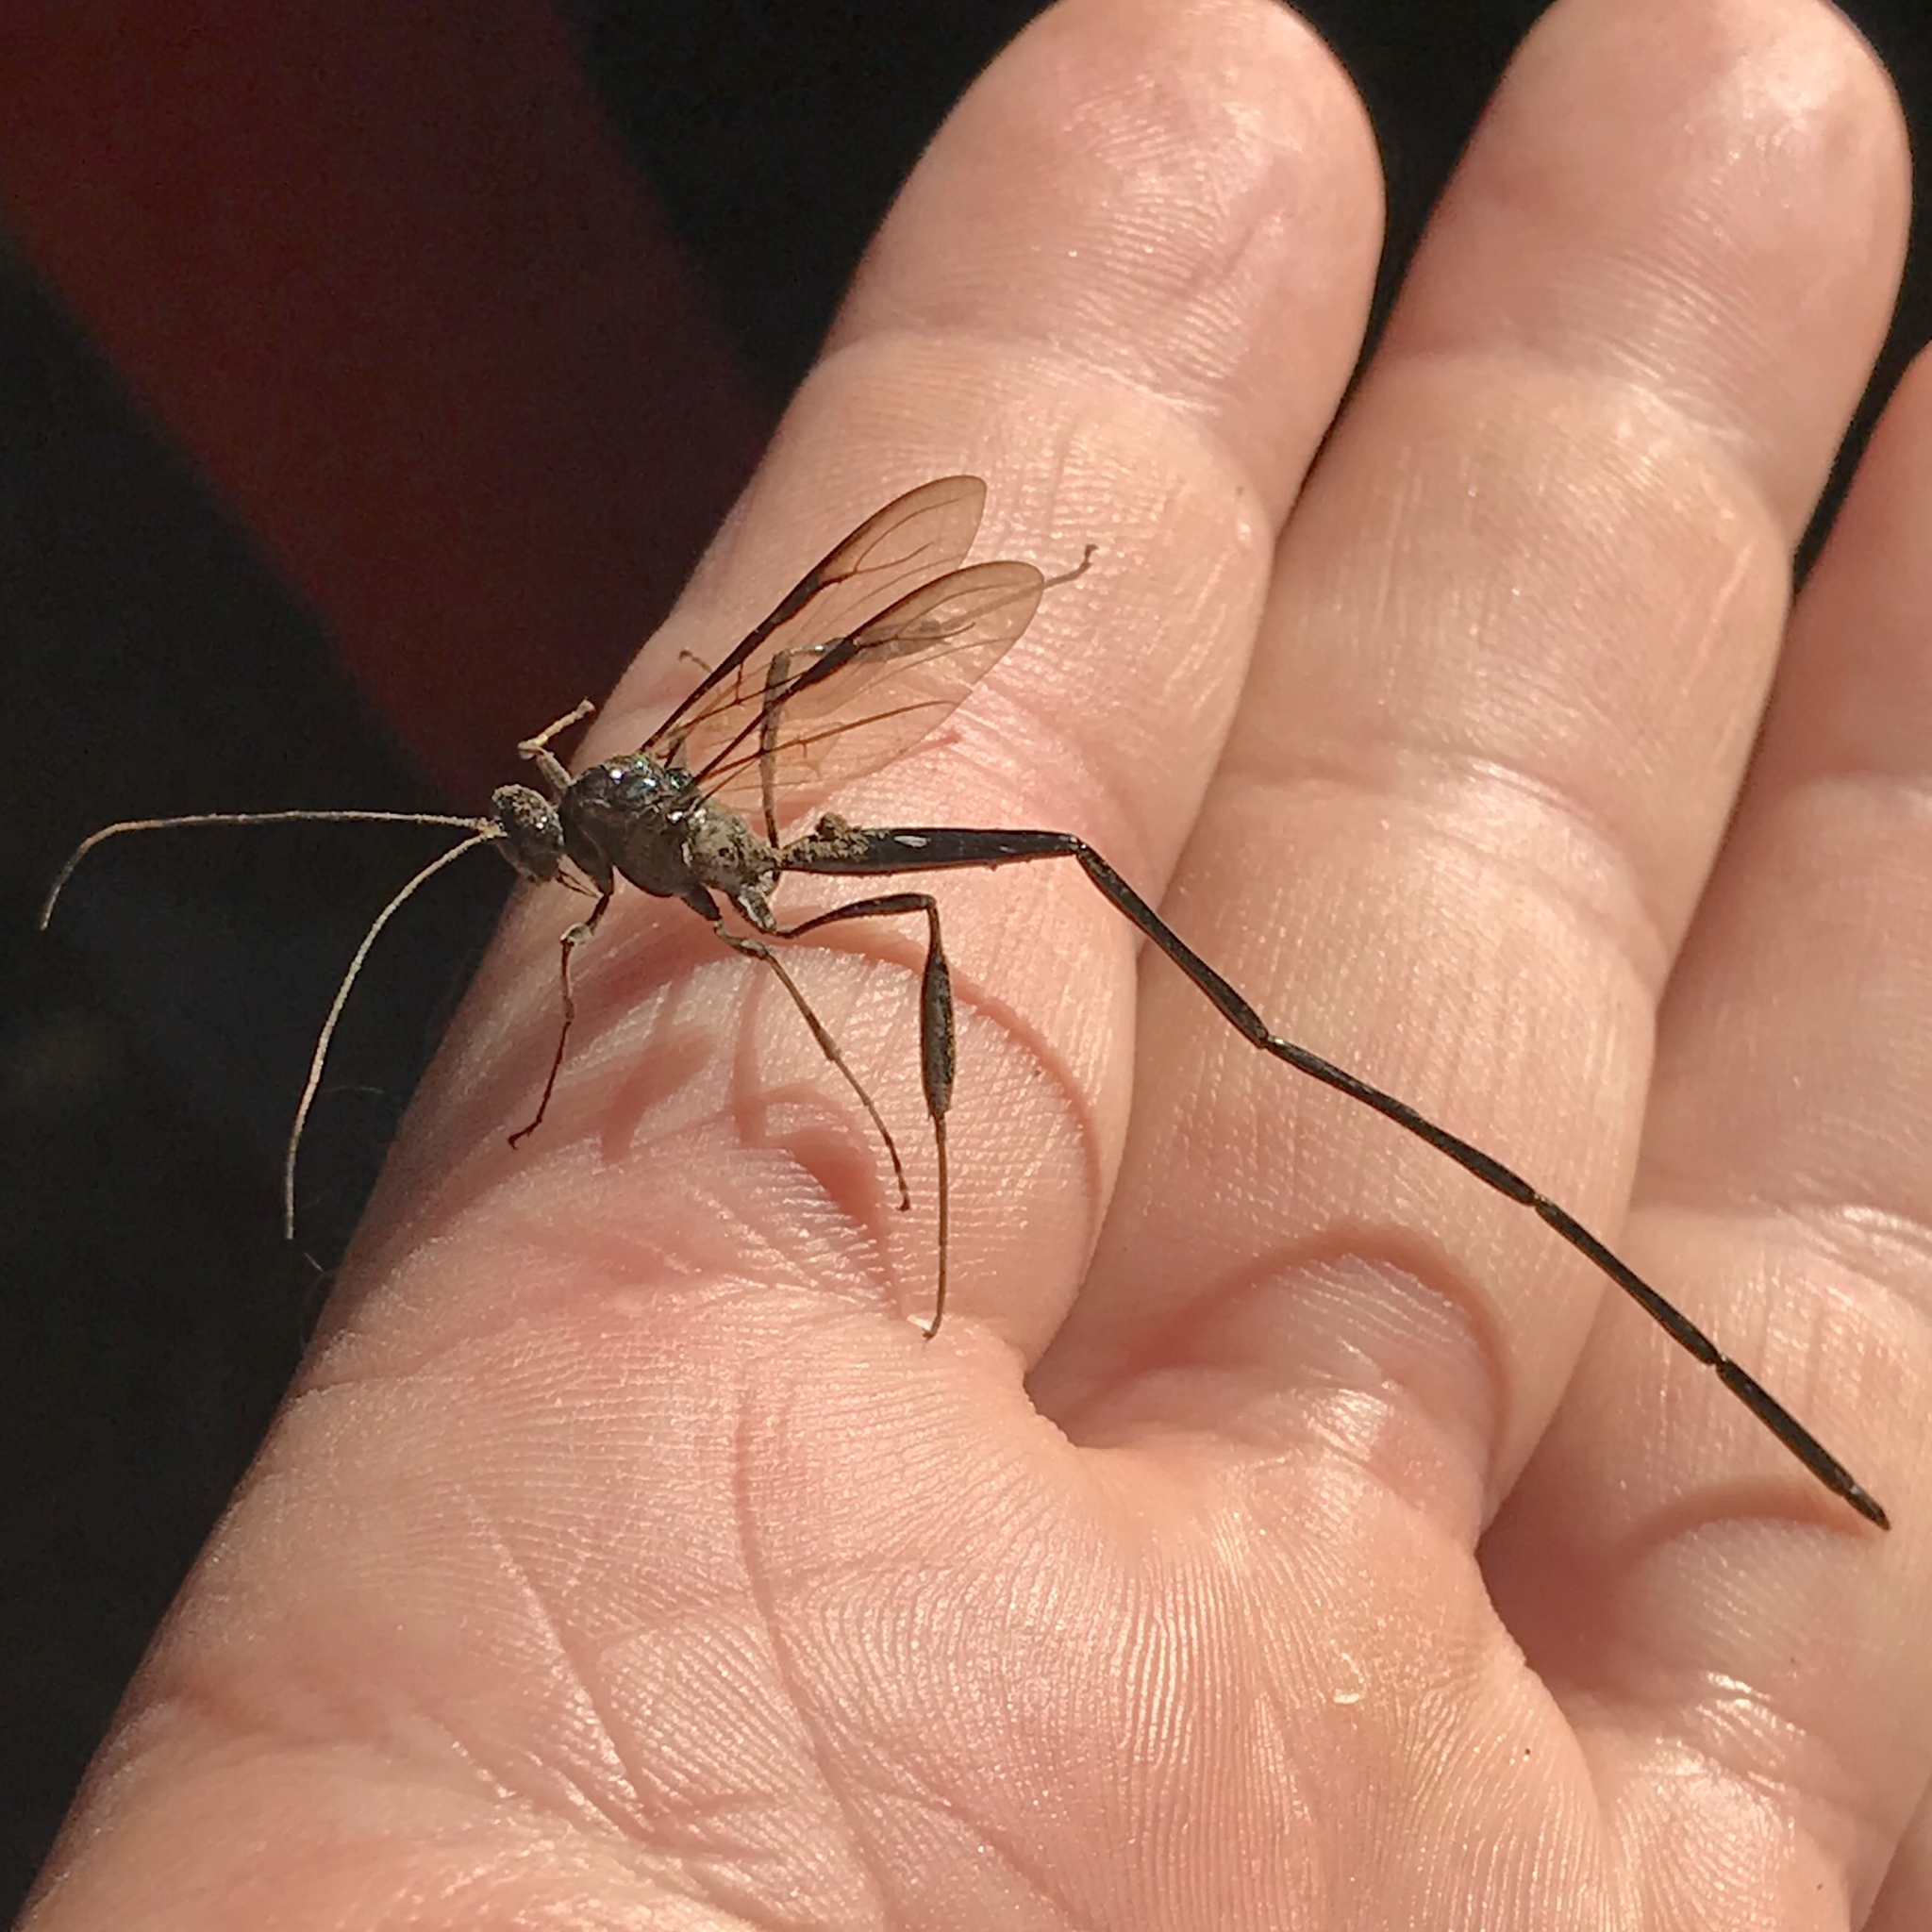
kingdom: Animalia
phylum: Arthropoda
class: Insecta
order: Hymenoptera
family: Pelecinidae
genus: Pelecinus
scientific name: Pelecinus polyturator
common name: American pelecinid wasp
